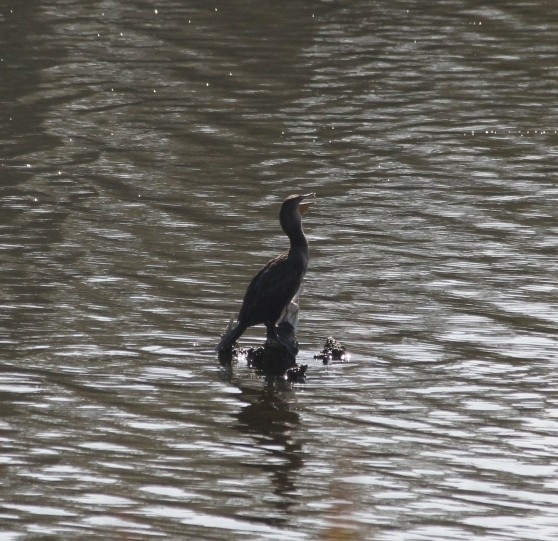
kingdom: Animalia
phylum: Chordata
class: Aves
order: Suliformes
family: Phalacrocoracidae
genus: Phalacrocorax
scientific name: Phalacrocorax auritus
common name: Double-crested cormorant
